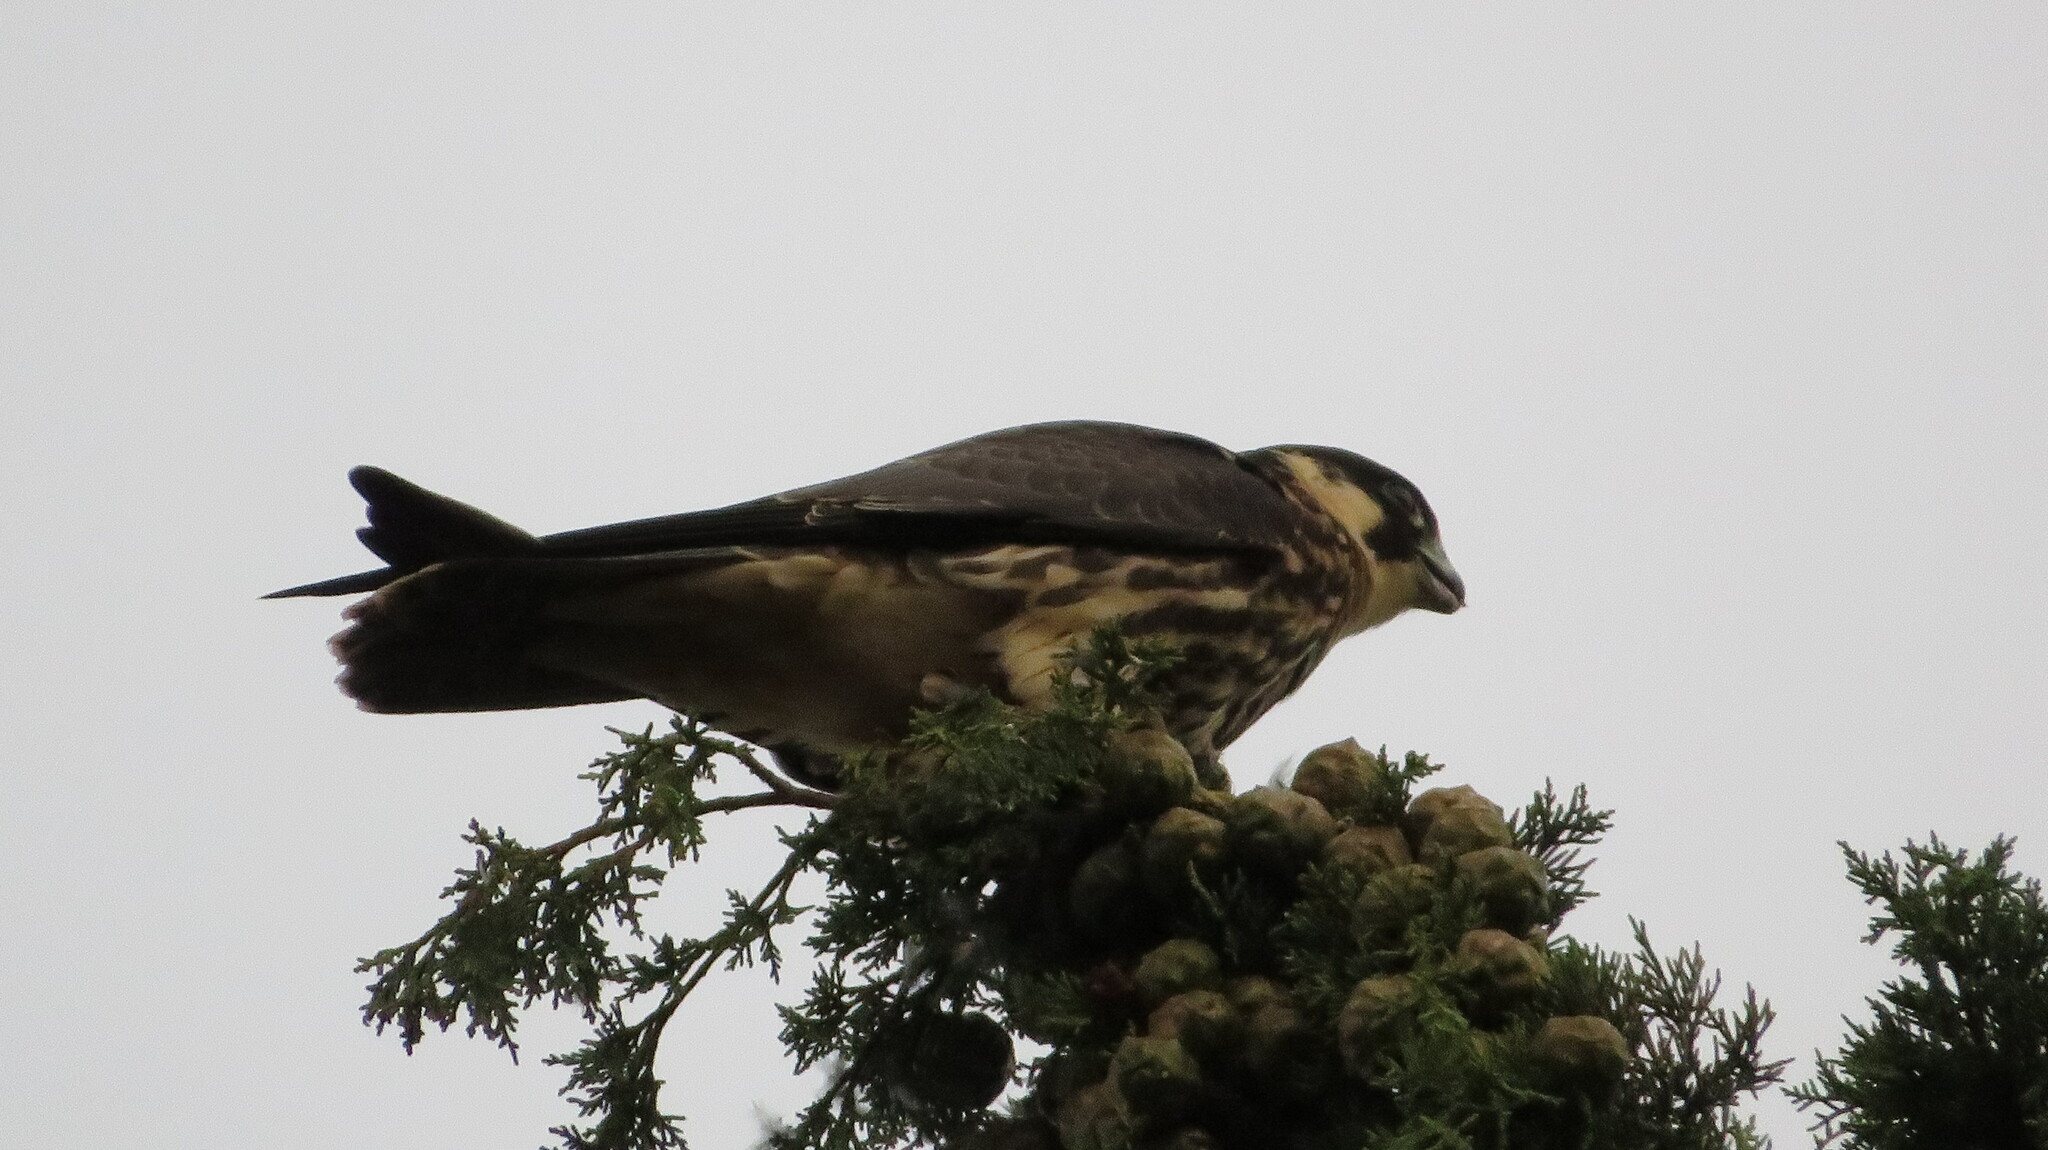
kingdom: Animalia
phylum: Chordata
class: Aves
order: Falconiformes
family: Falconidae
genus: Falco
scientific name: Falco subbuteo
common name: Eurasian hobby
